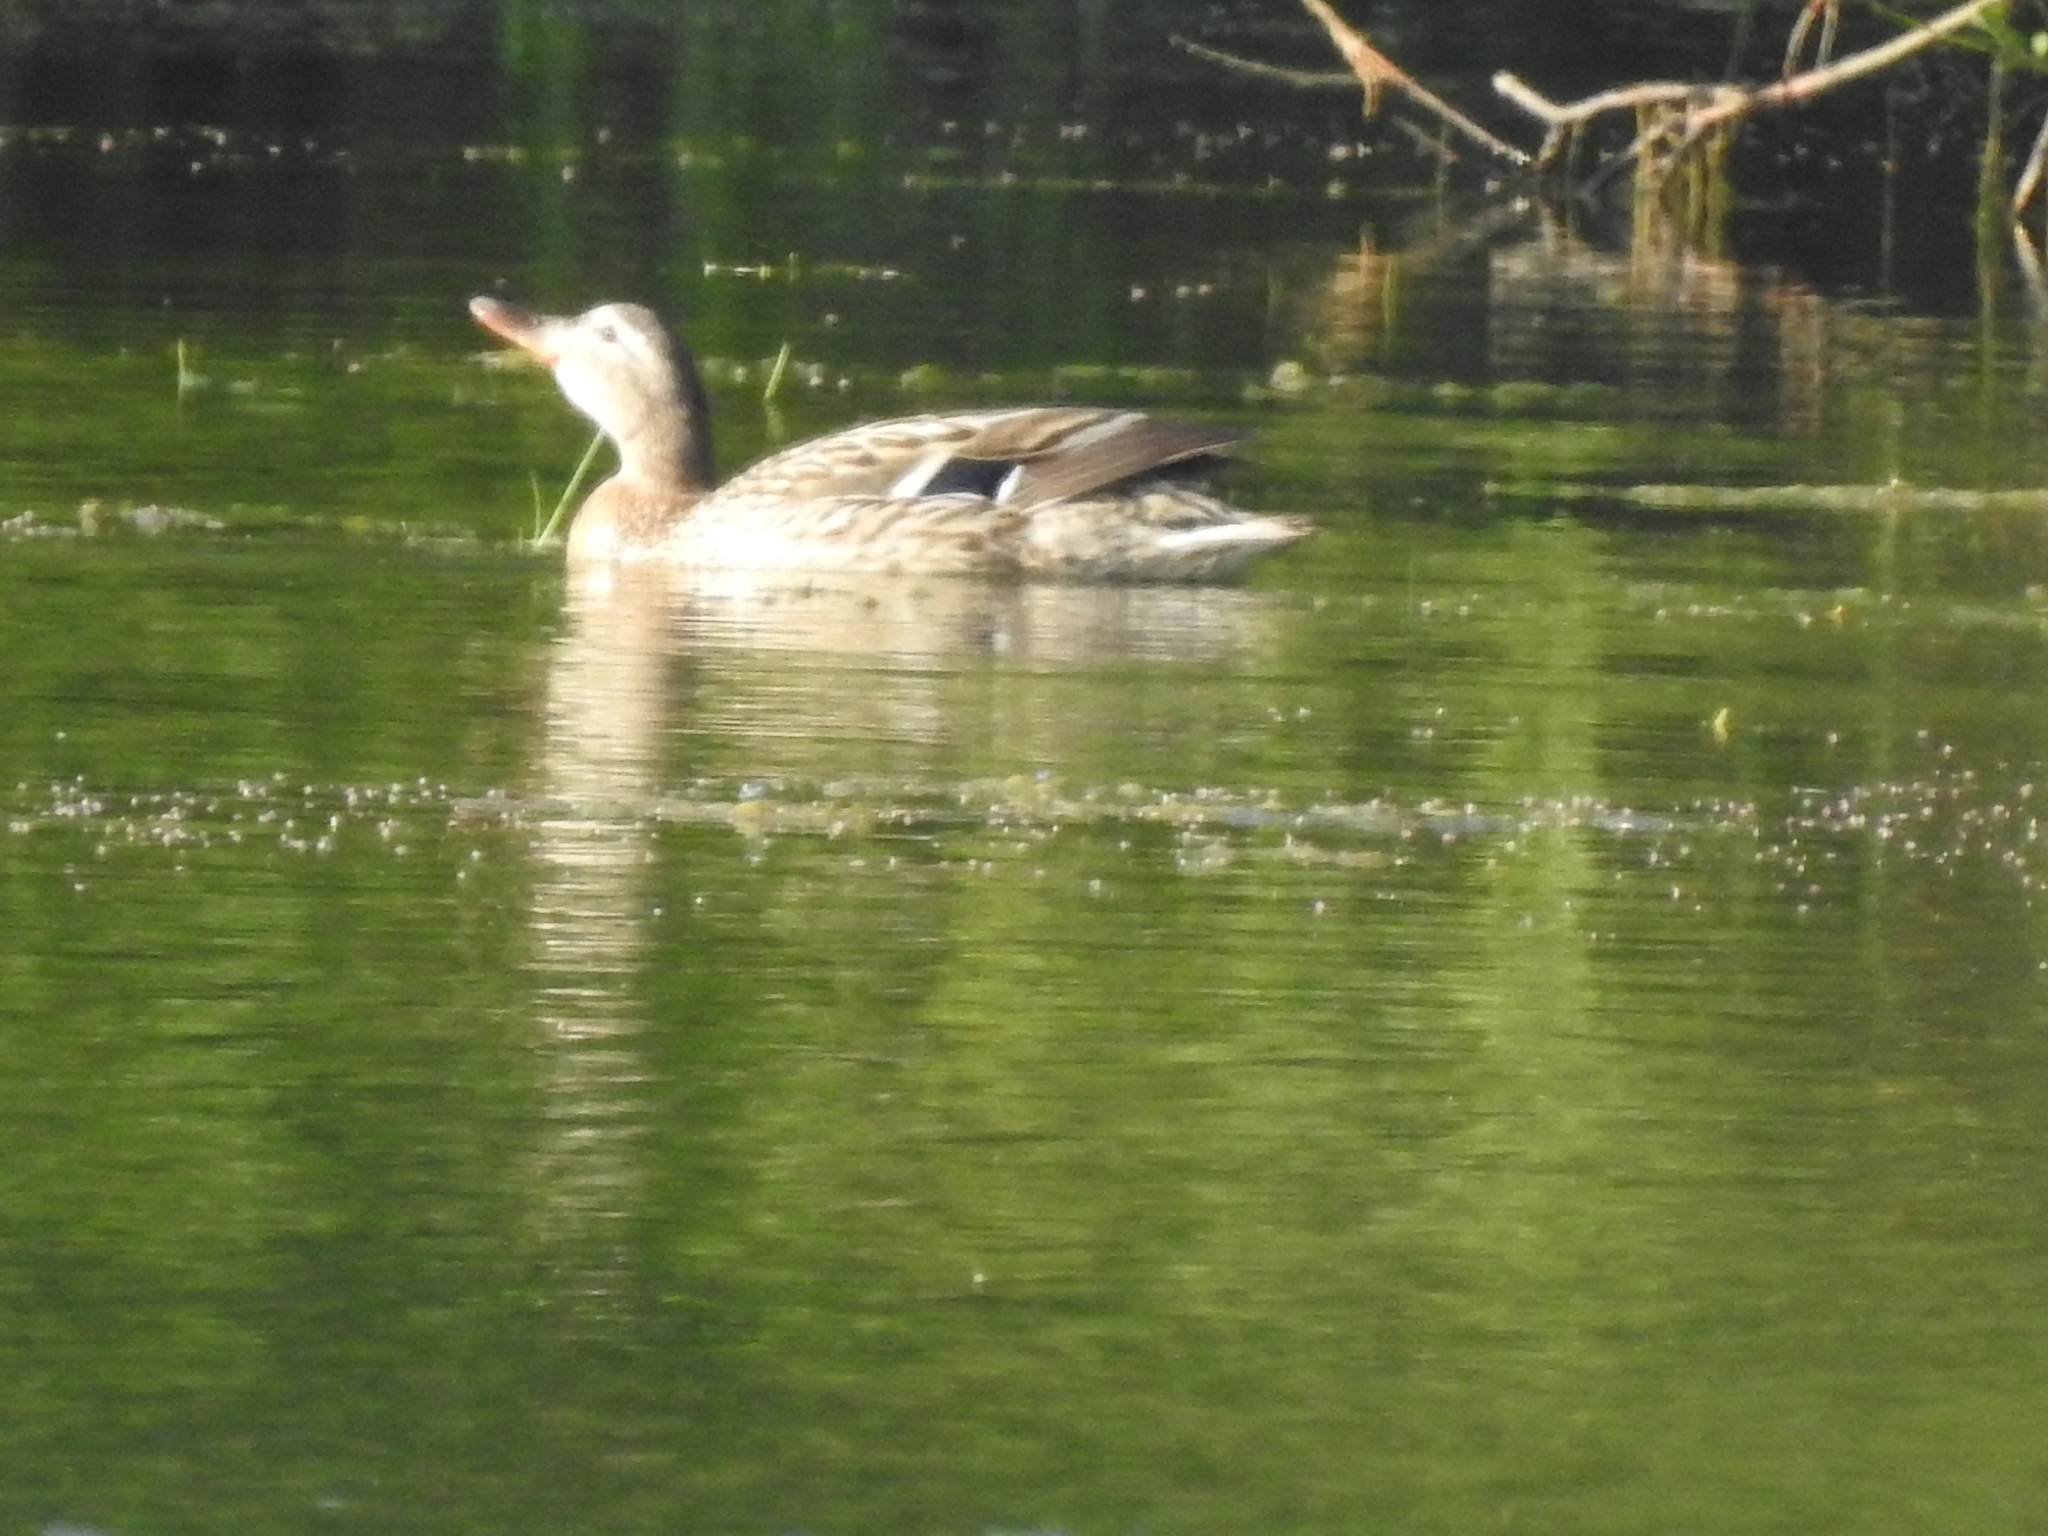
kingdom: Animalia
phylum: Chordata
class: Aves
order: Anseriformes
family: Anatidae
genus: Anas
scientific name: Anas platyrhynchos
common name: Mallard
